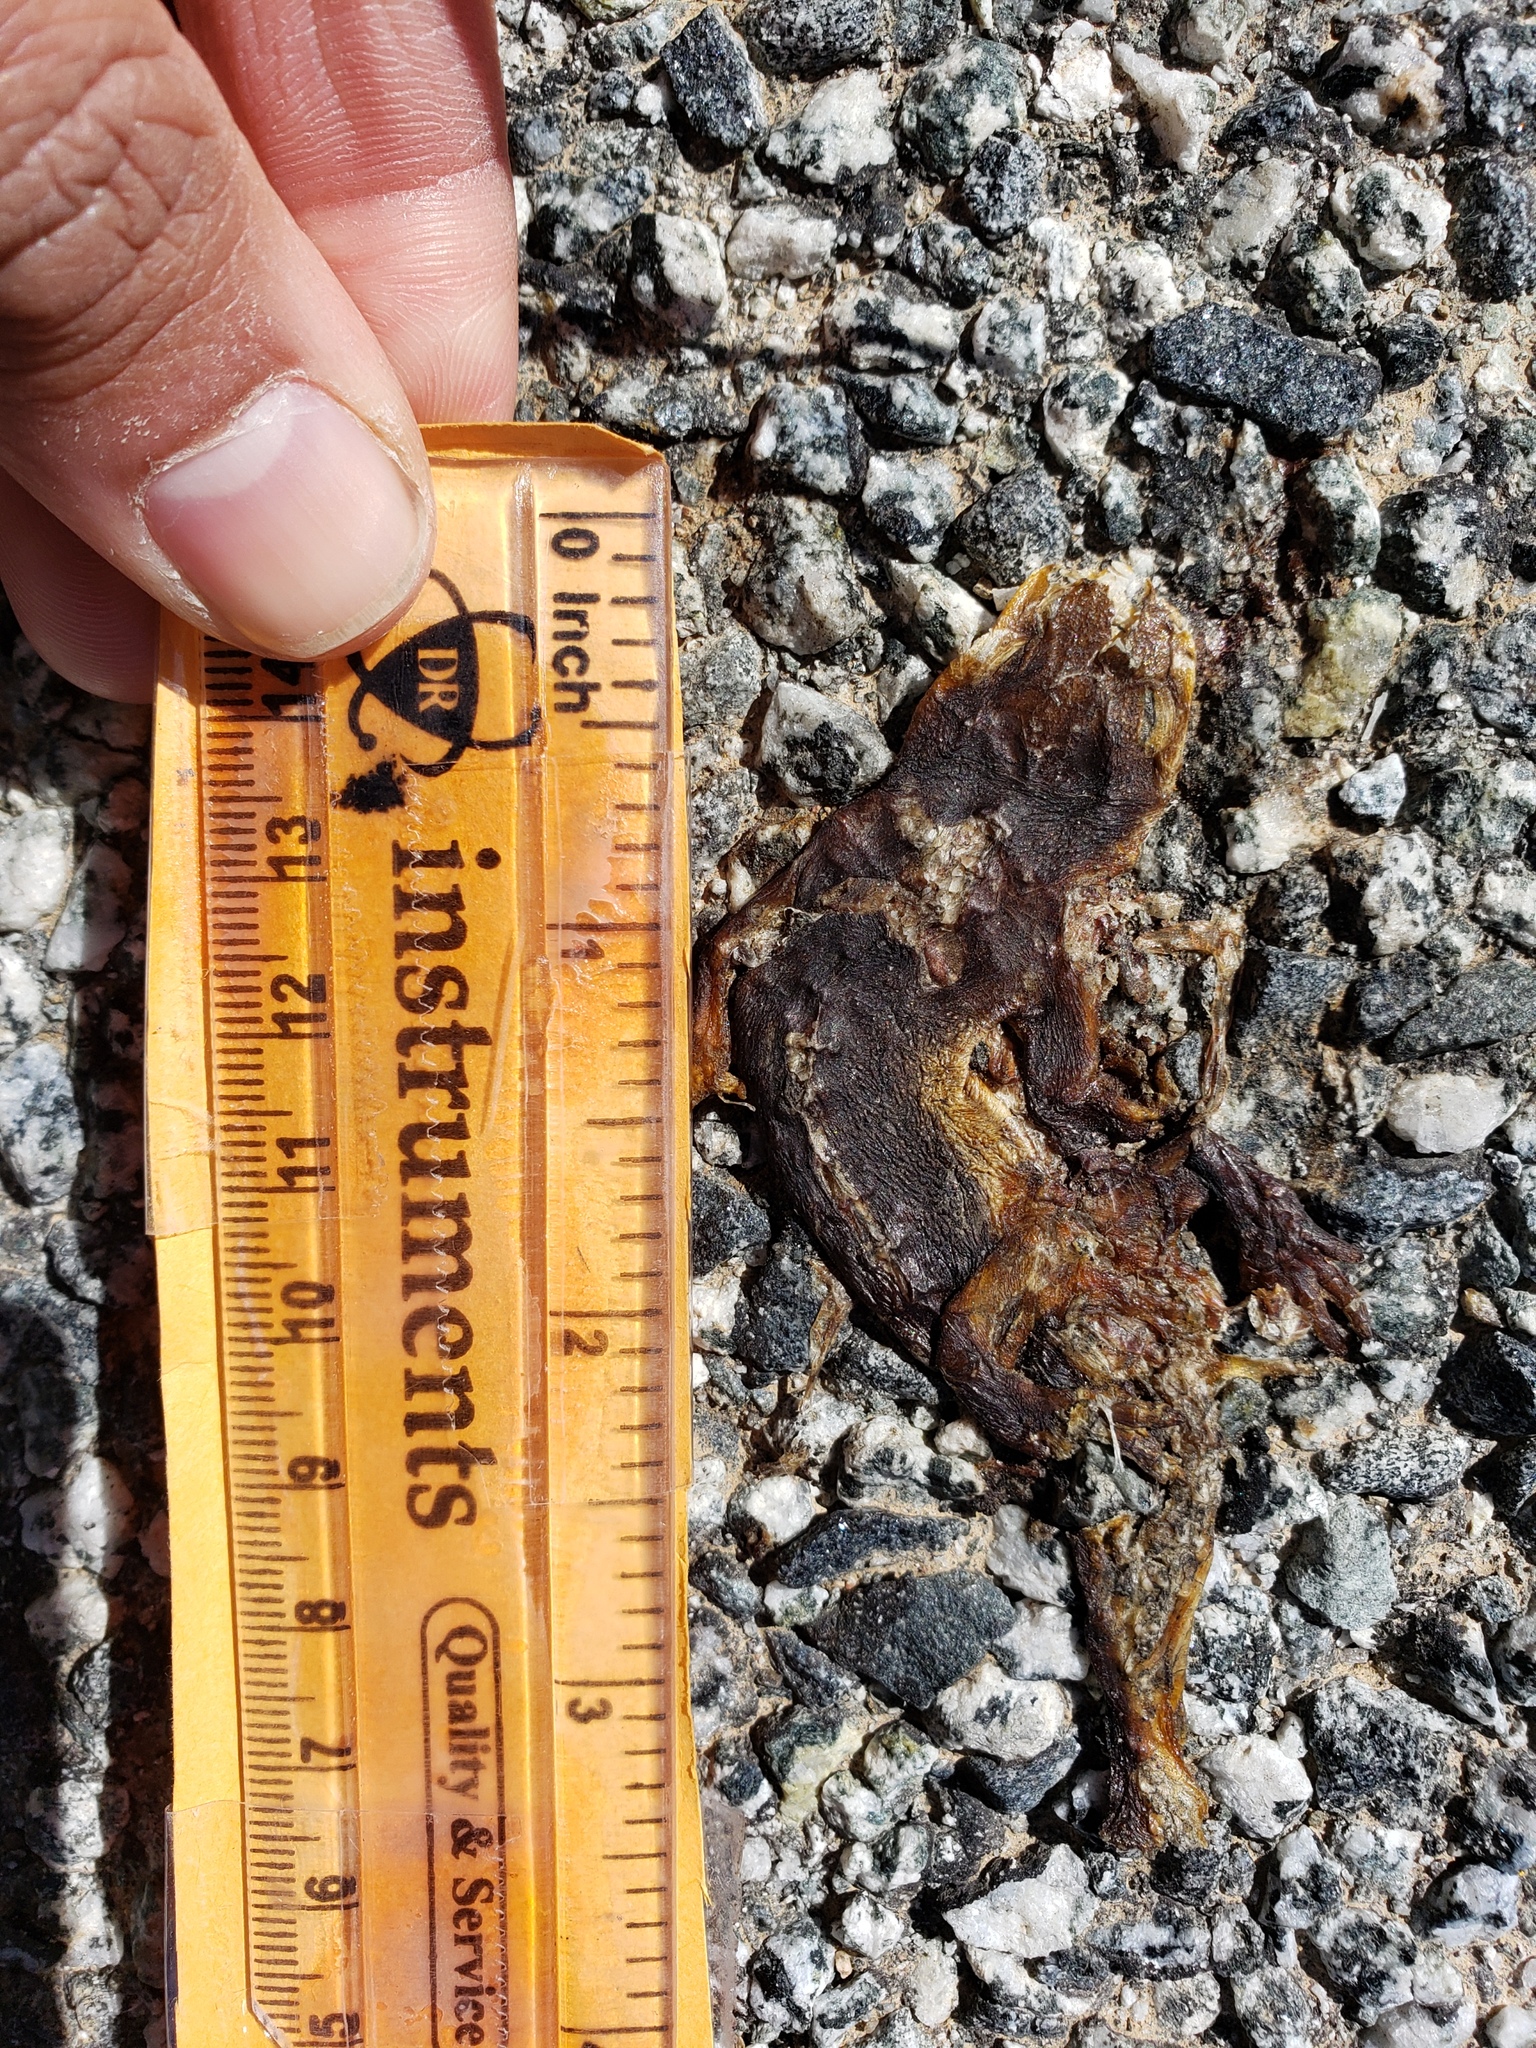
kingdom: Animalia
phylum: Chordata
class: Amphibia
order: Caudata
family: Salamandridae
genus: Taricha
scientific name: Taricha
